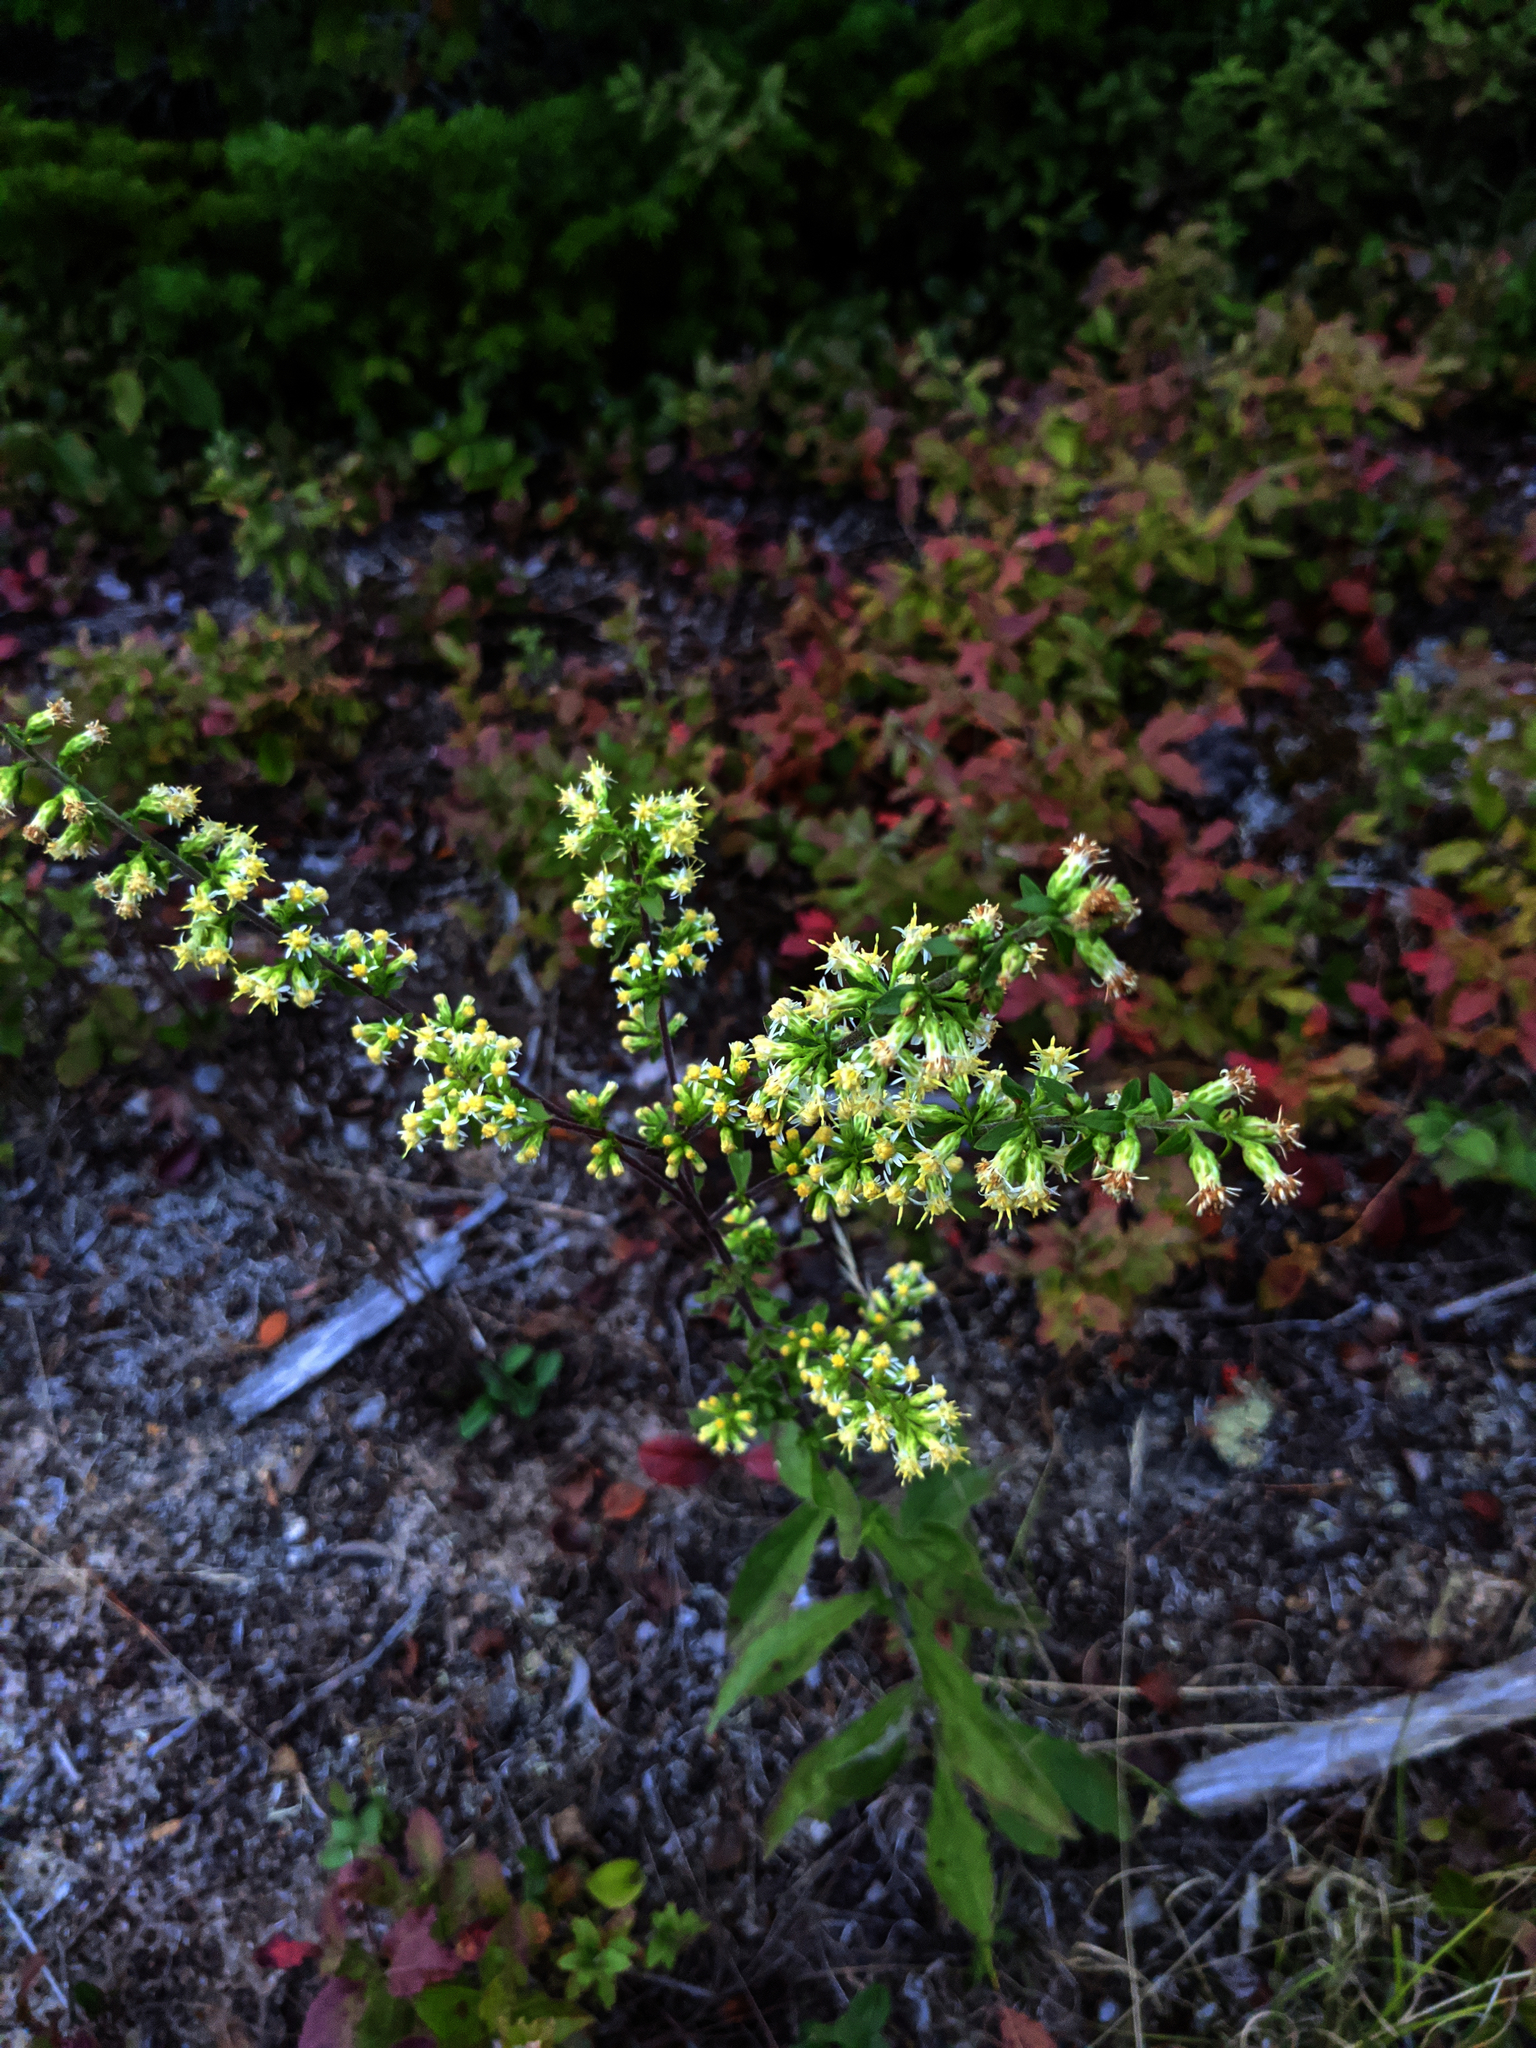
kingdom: Plantae
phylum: Tracheophyta
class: Magnoliopsida
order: Asterales
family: Asteraceae
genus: Solidago
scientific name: Solidago bicolor
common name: Silverrod
